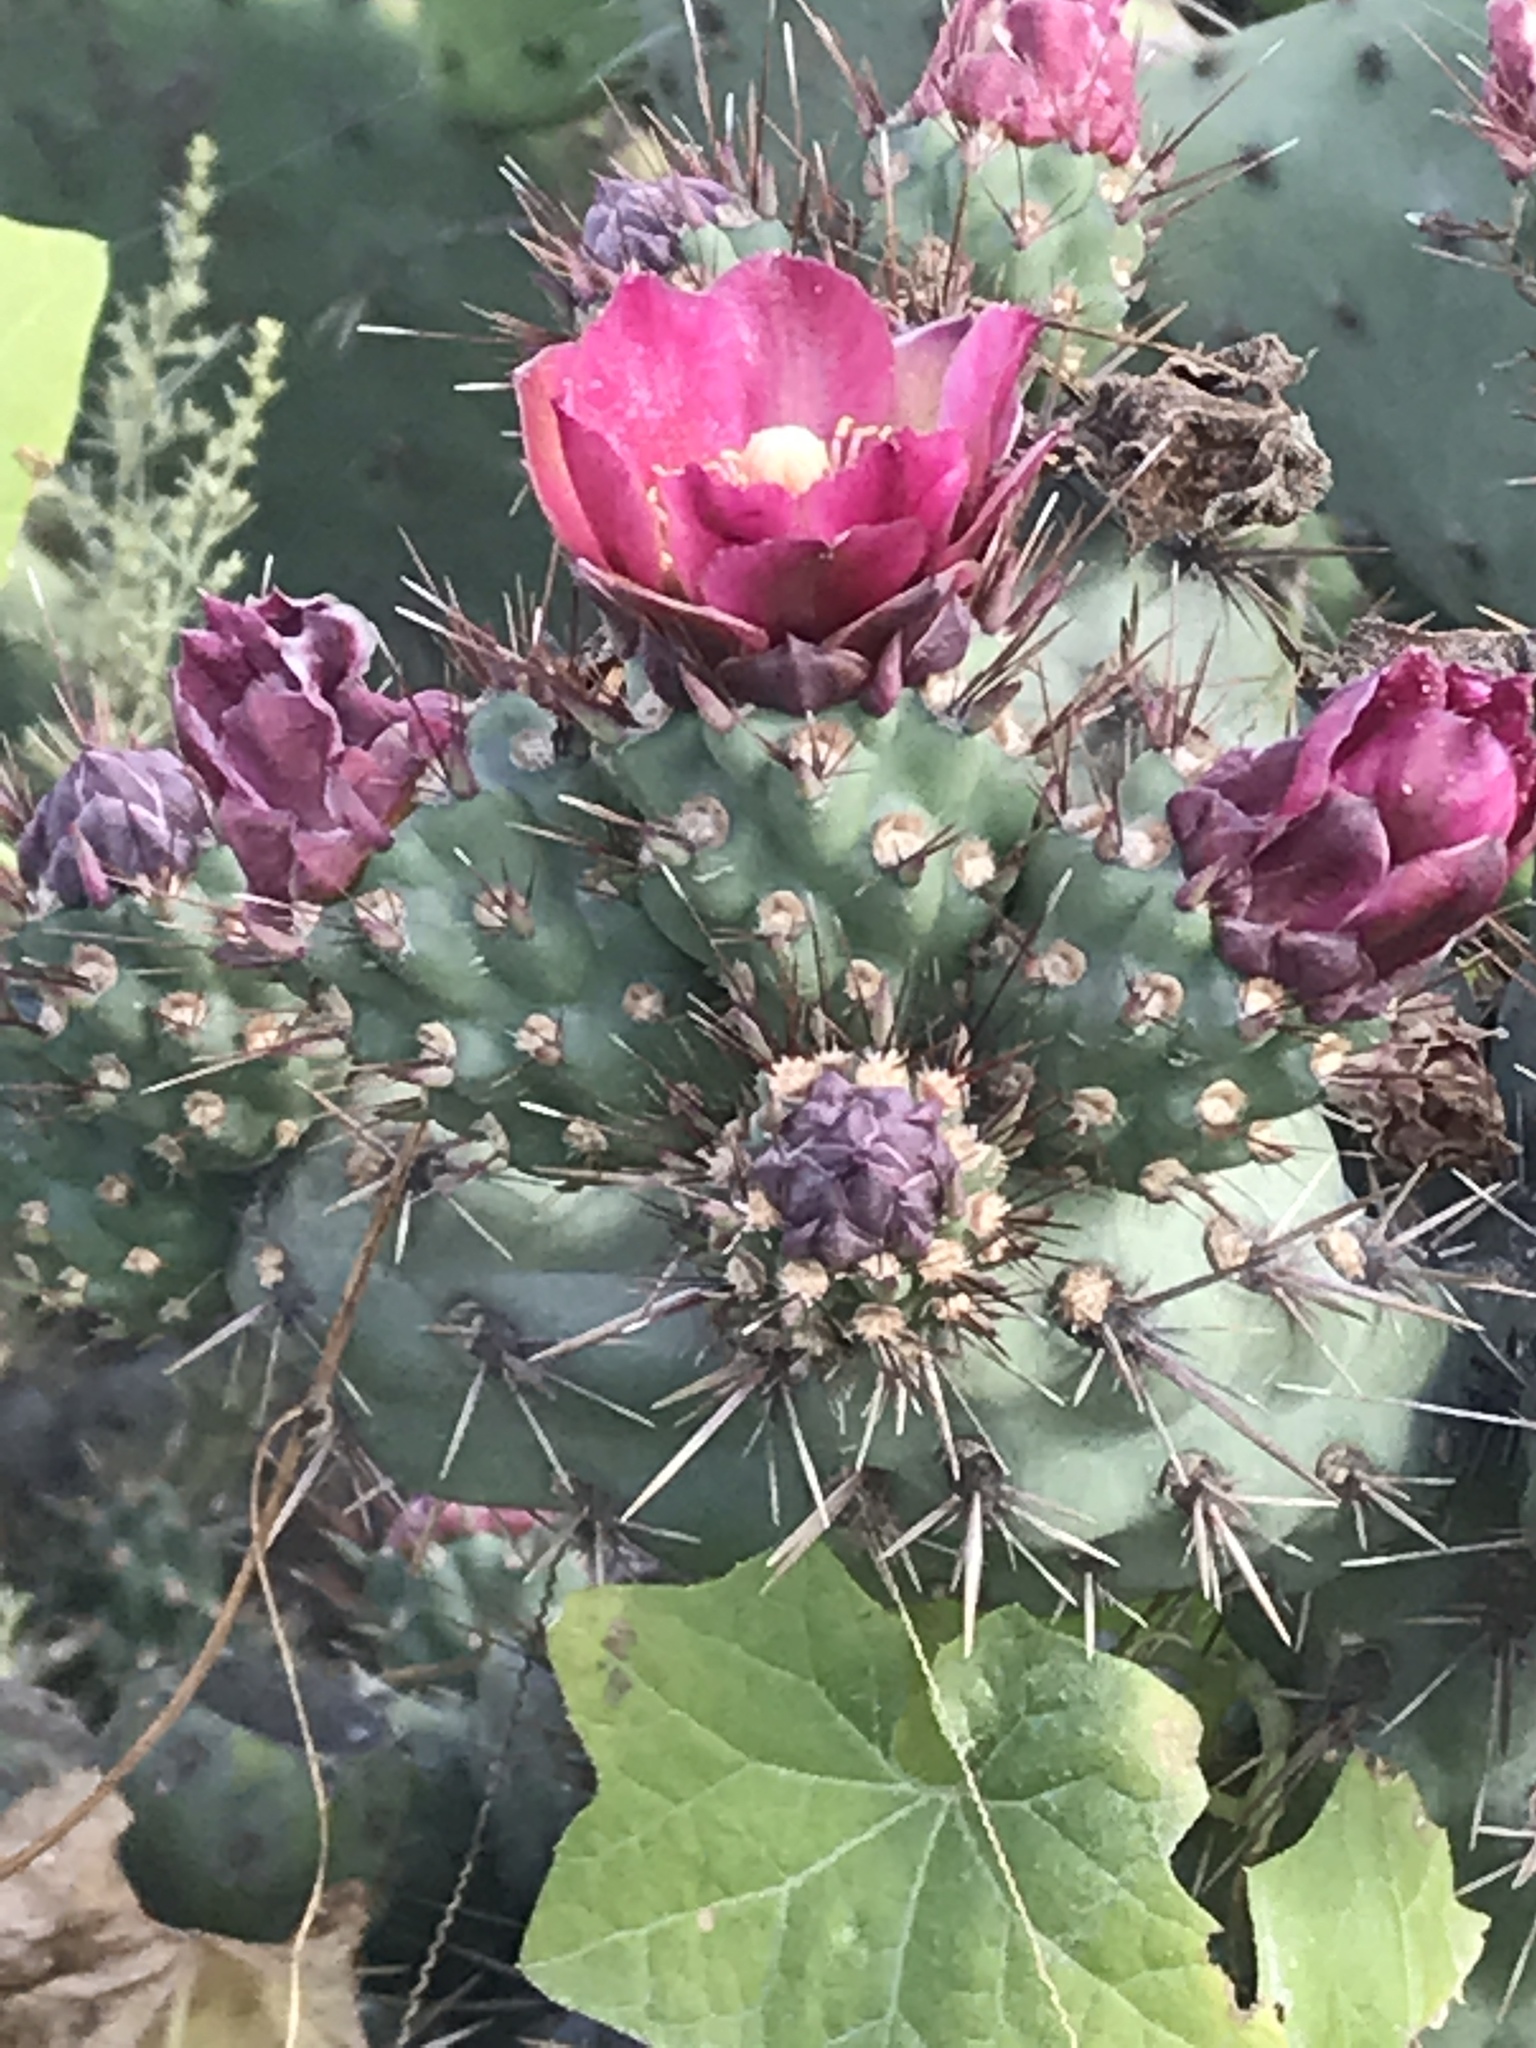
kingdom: Plantae
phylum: Tracheophyta
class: Magnoliopsida
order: Caryophyllales
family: Cactaceae
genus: Cylindropuntia
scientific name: Cylindropuntia prolifera
